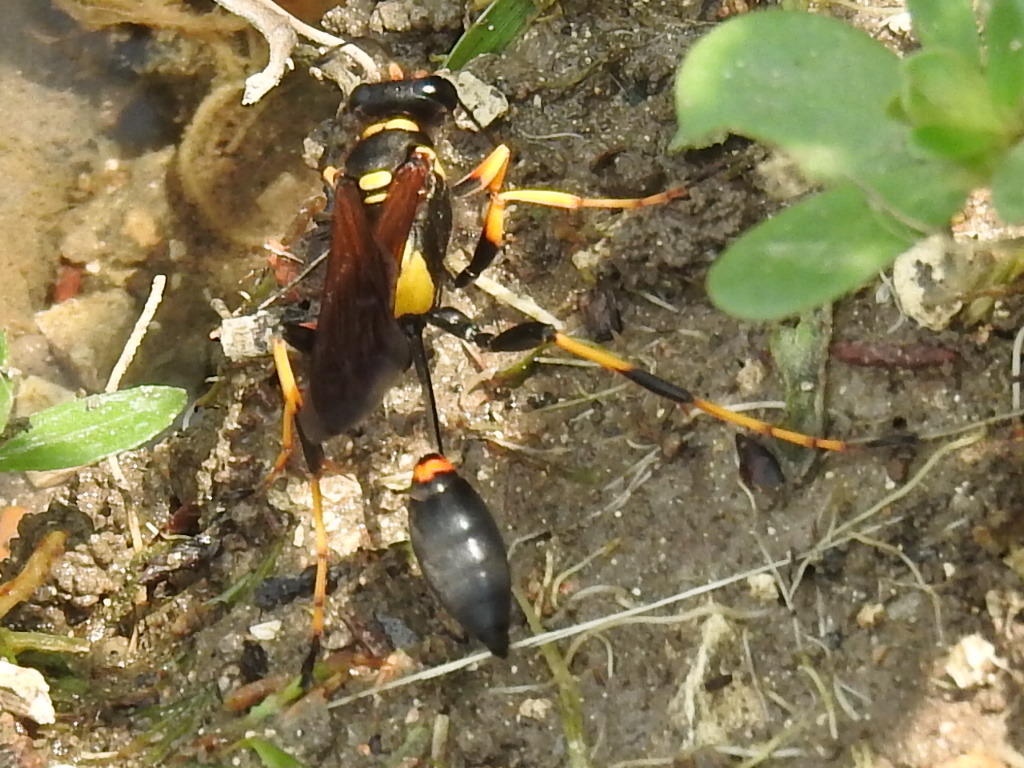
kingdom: Animalia
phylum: Arthropoda
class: Insecta
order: Hymenoptera
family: Sphecidae
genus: Sceliphron
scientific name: Sceliphron caementarium
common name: Mud dauber
